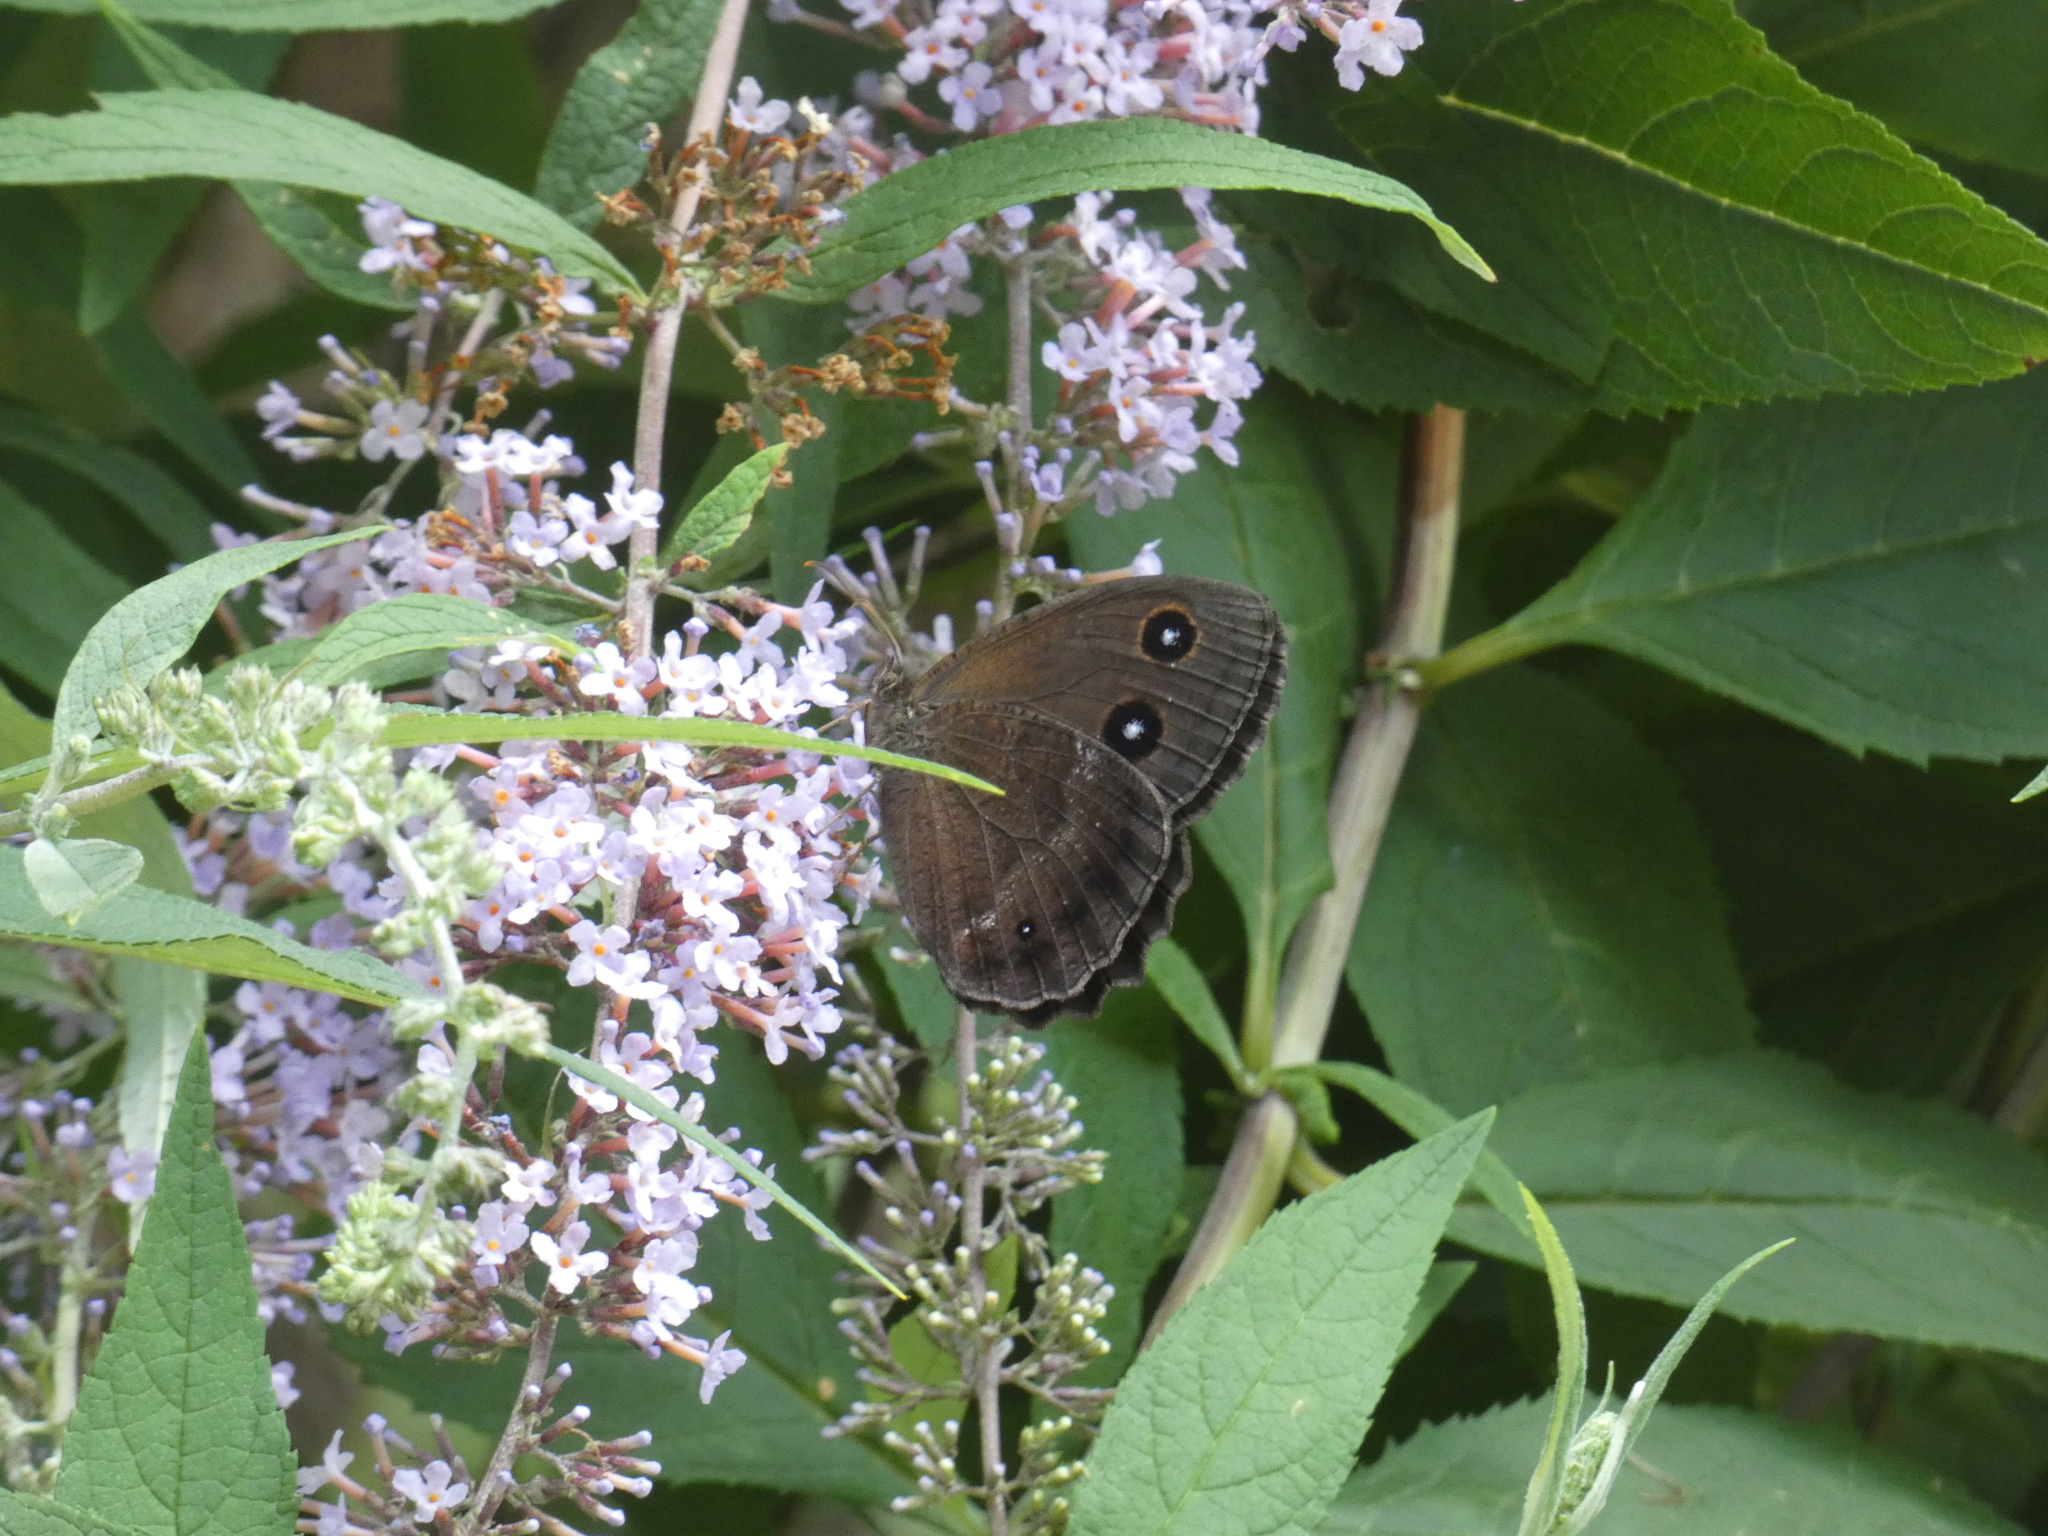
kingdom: Animalia
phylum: Arthropoda
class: Insecta
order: Lepidoptera
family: Nymphalidae
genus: Minois
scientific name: Minois dryas
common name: Dryad
